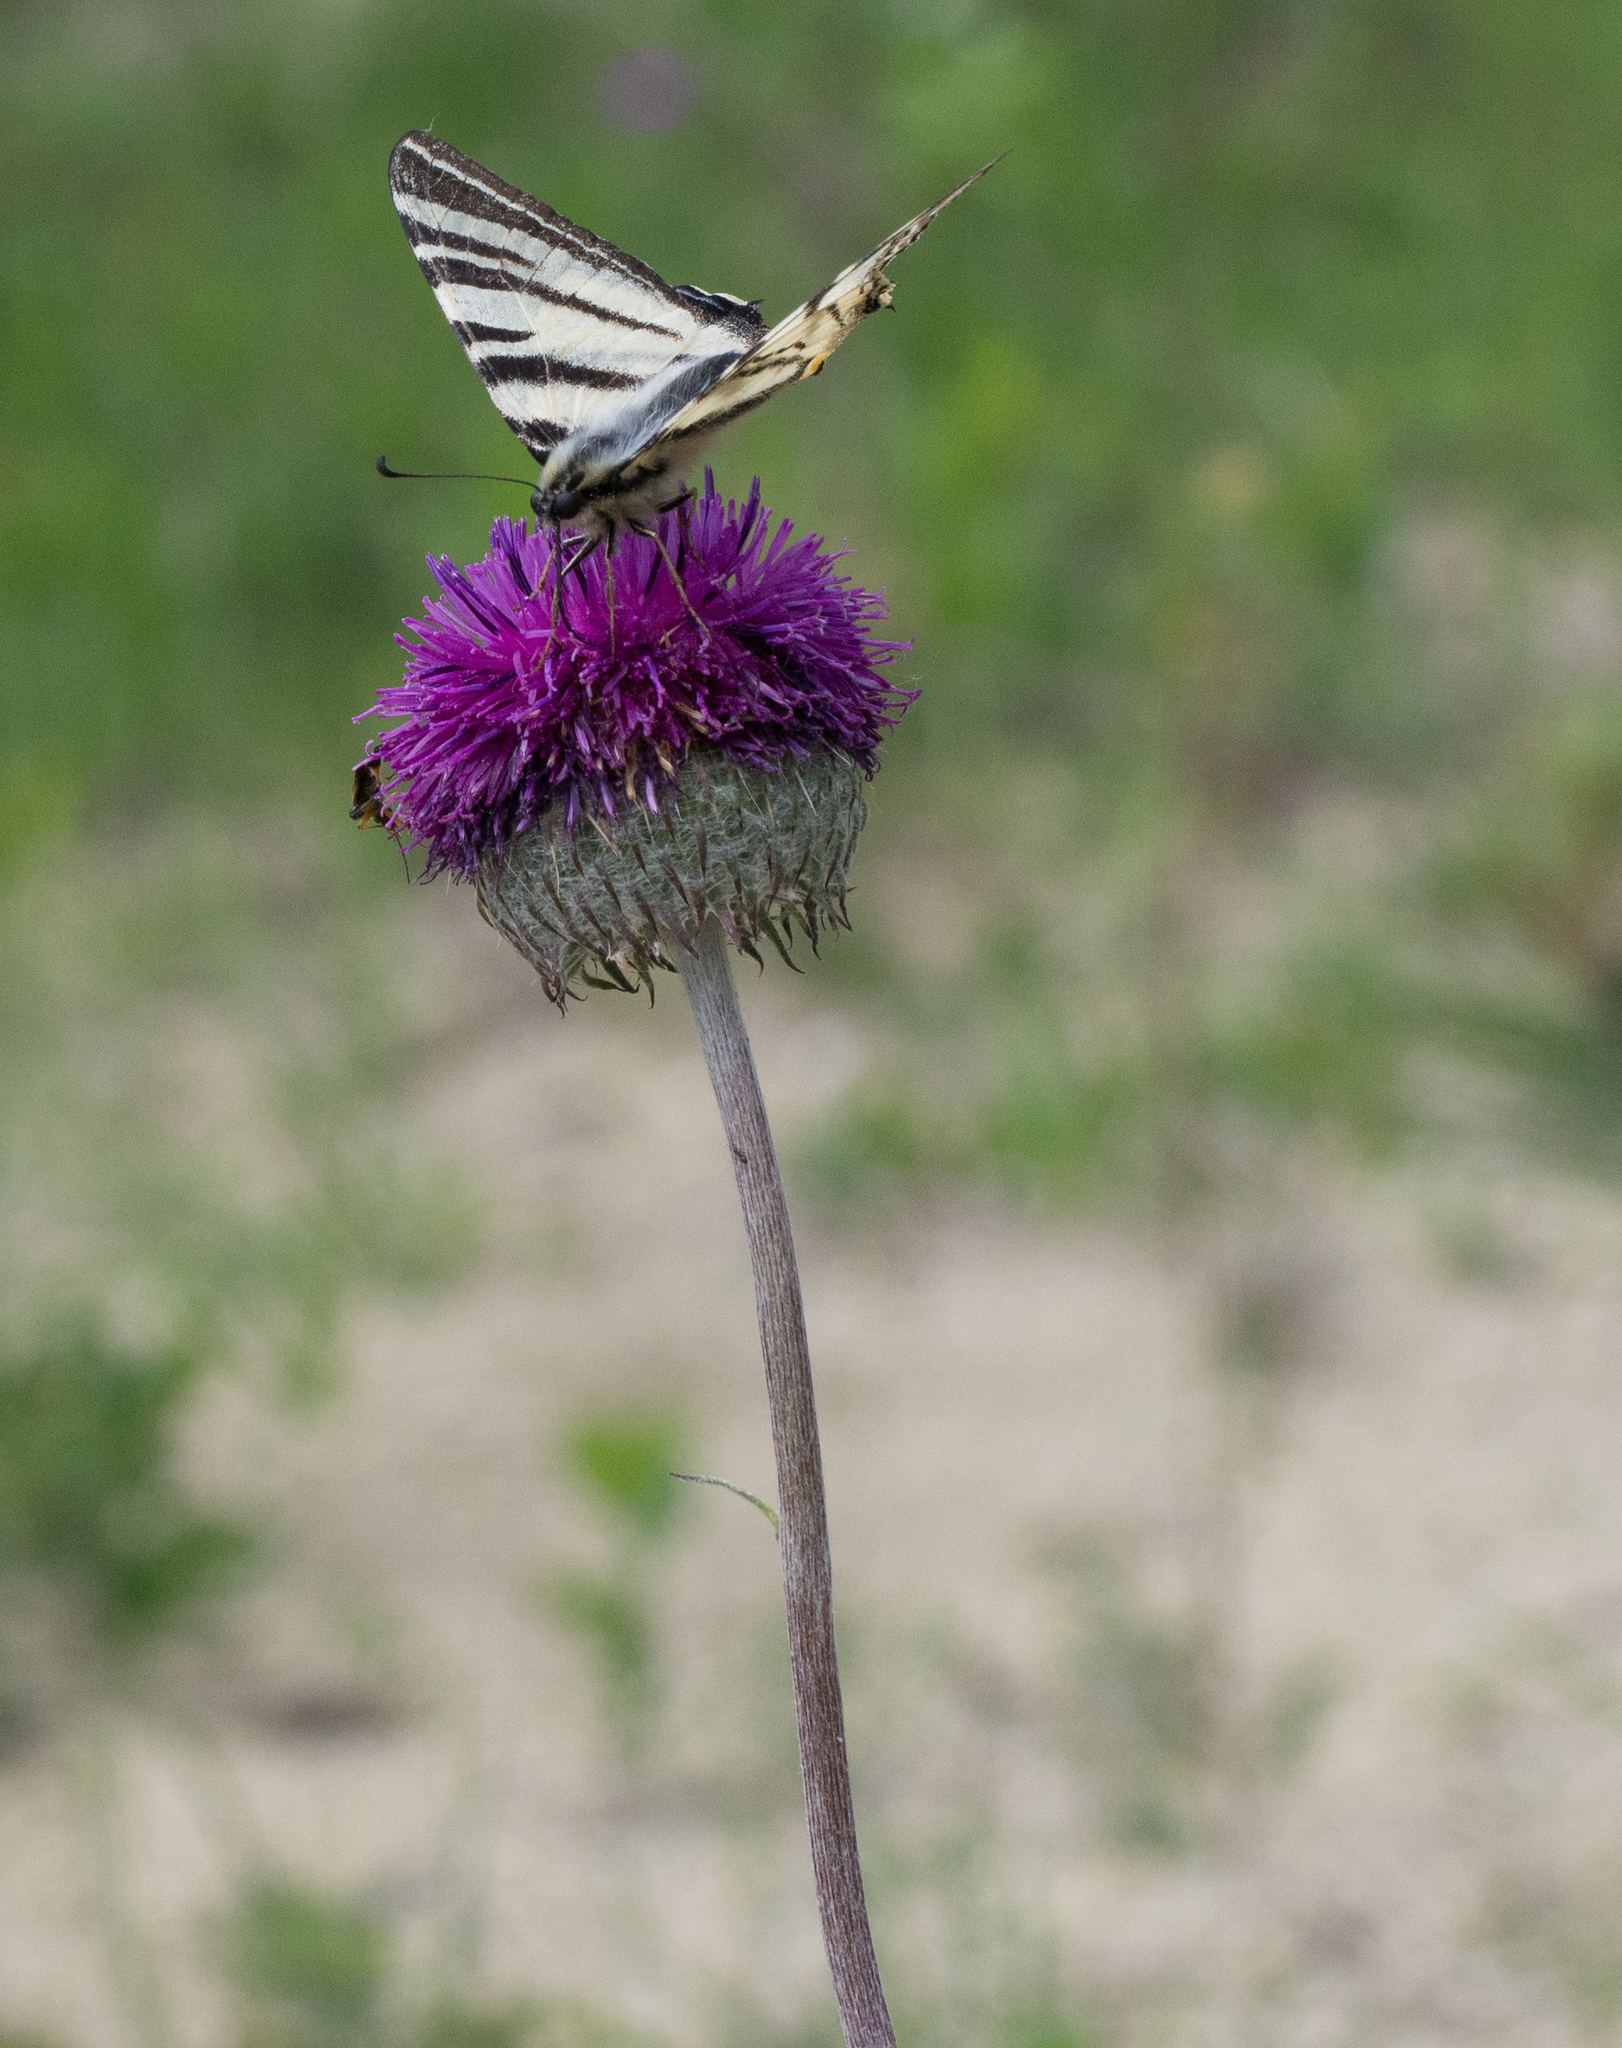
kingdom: Animalia
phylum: Arthropoda
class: Insecta
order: Lepidoptera
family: Papilionidae
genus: Iphiclides
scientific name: Iphiclides podalirius
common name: Scarce swallowtail
